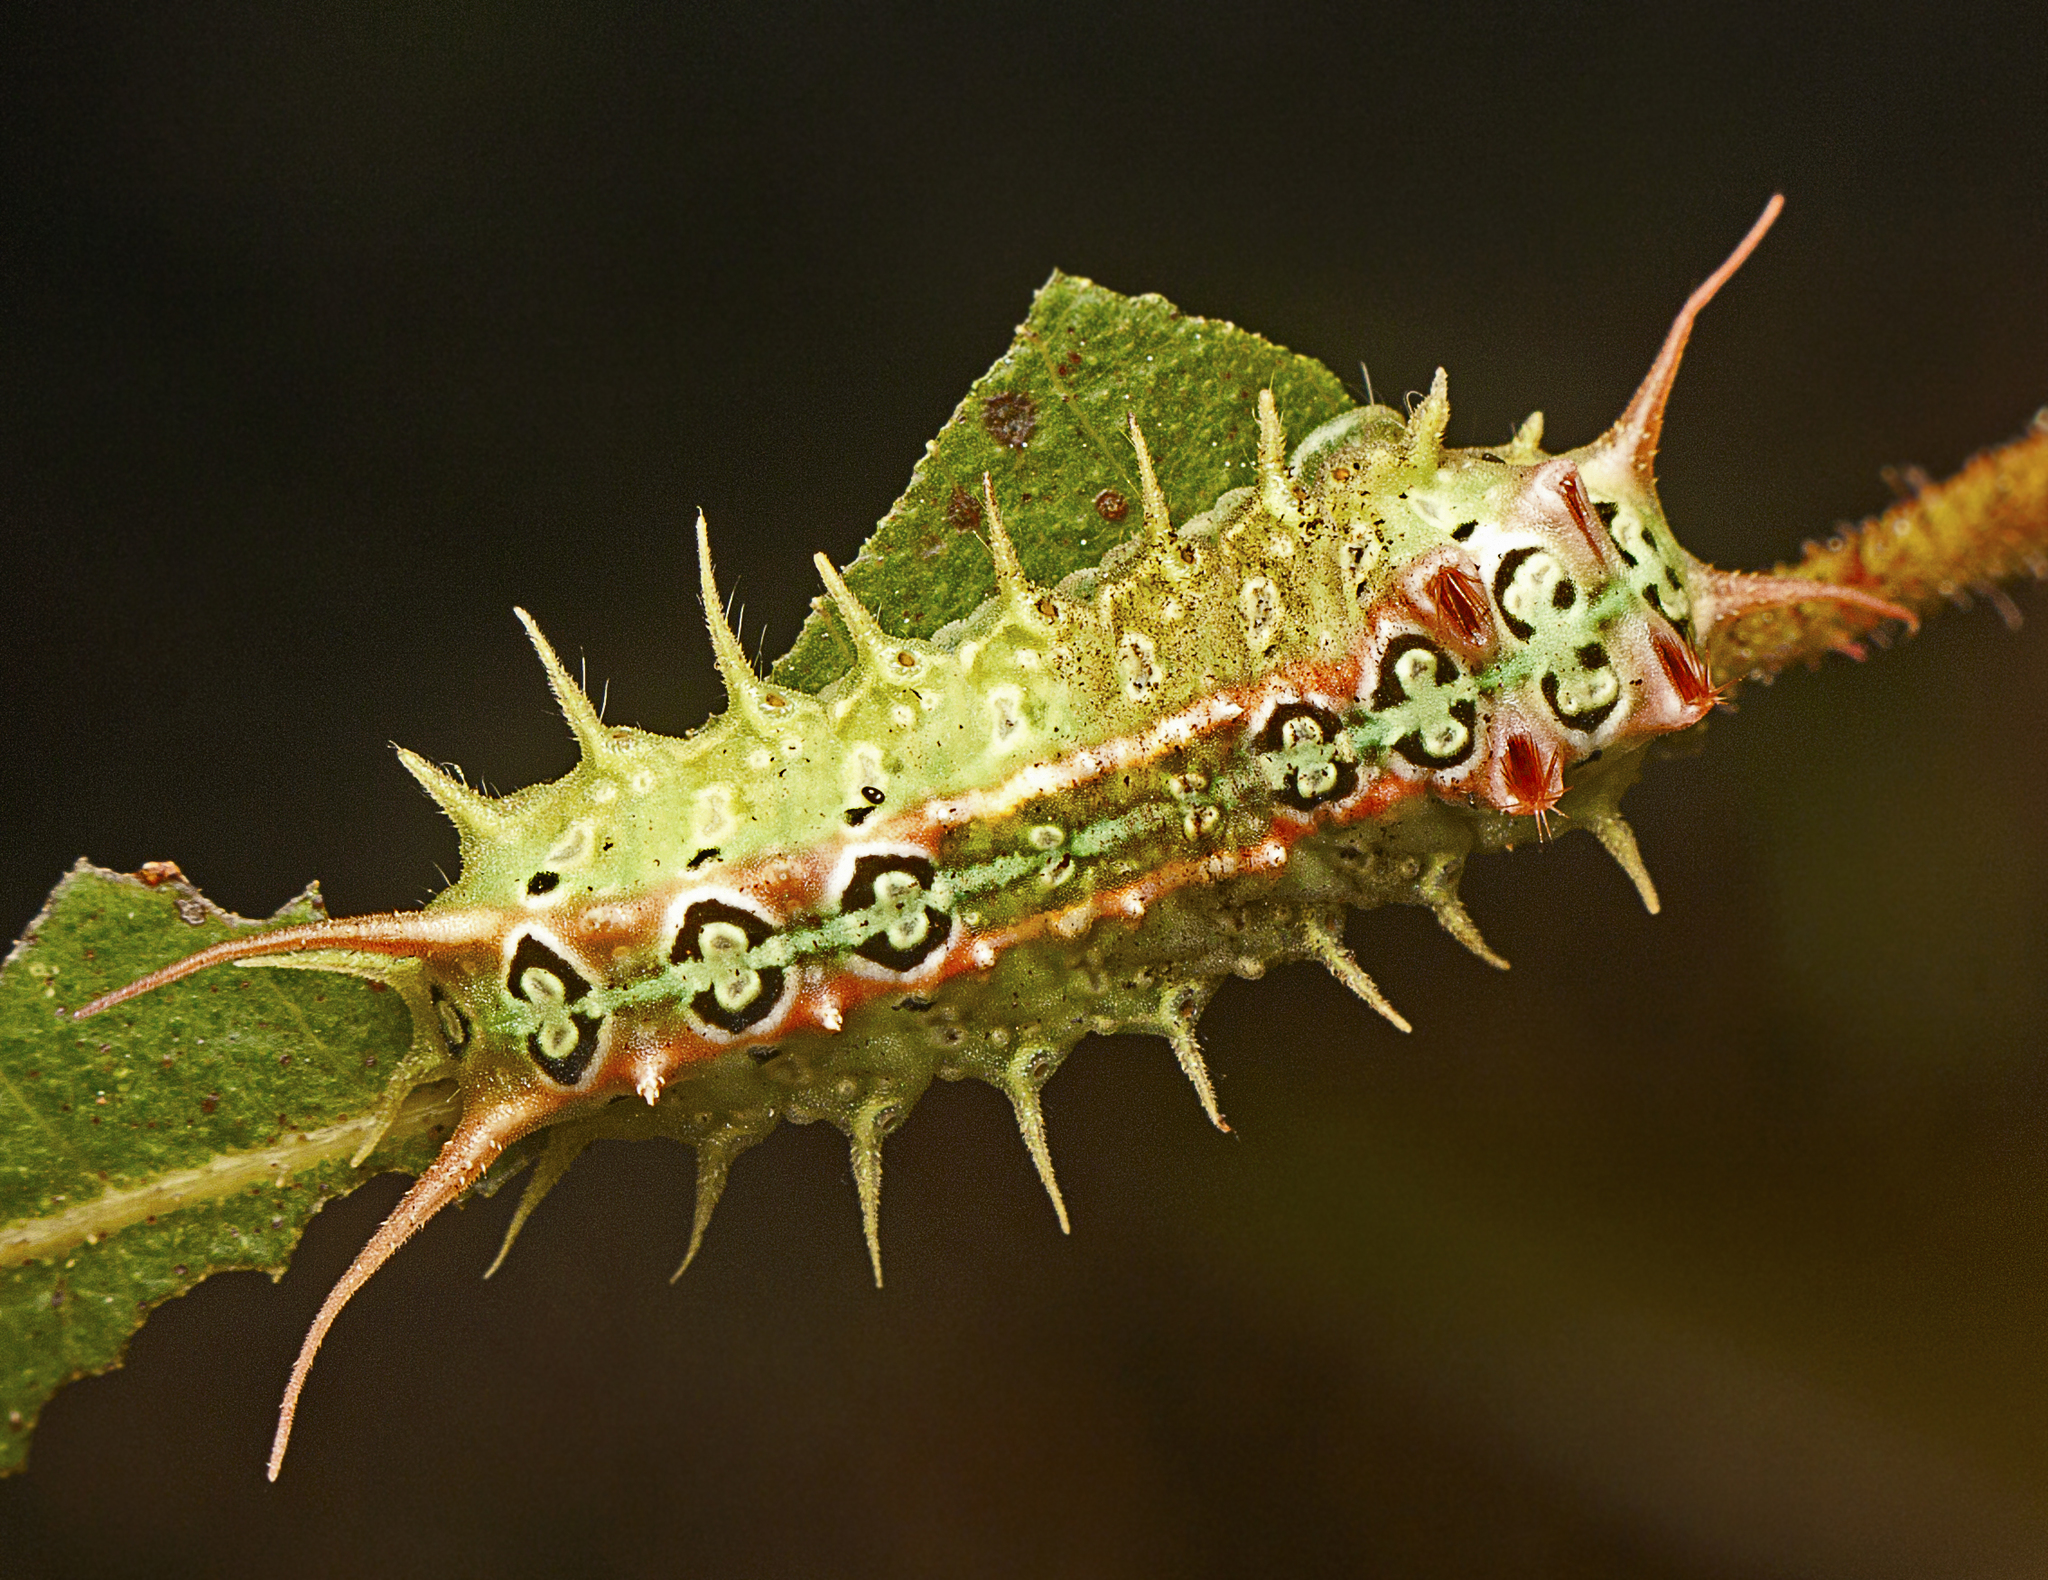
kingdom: Animalia
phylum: Arthropoda
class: Insecta
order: Lepidoptera
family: Limacodidae
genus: Doratifera
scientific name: Doratifera quadriguttata
